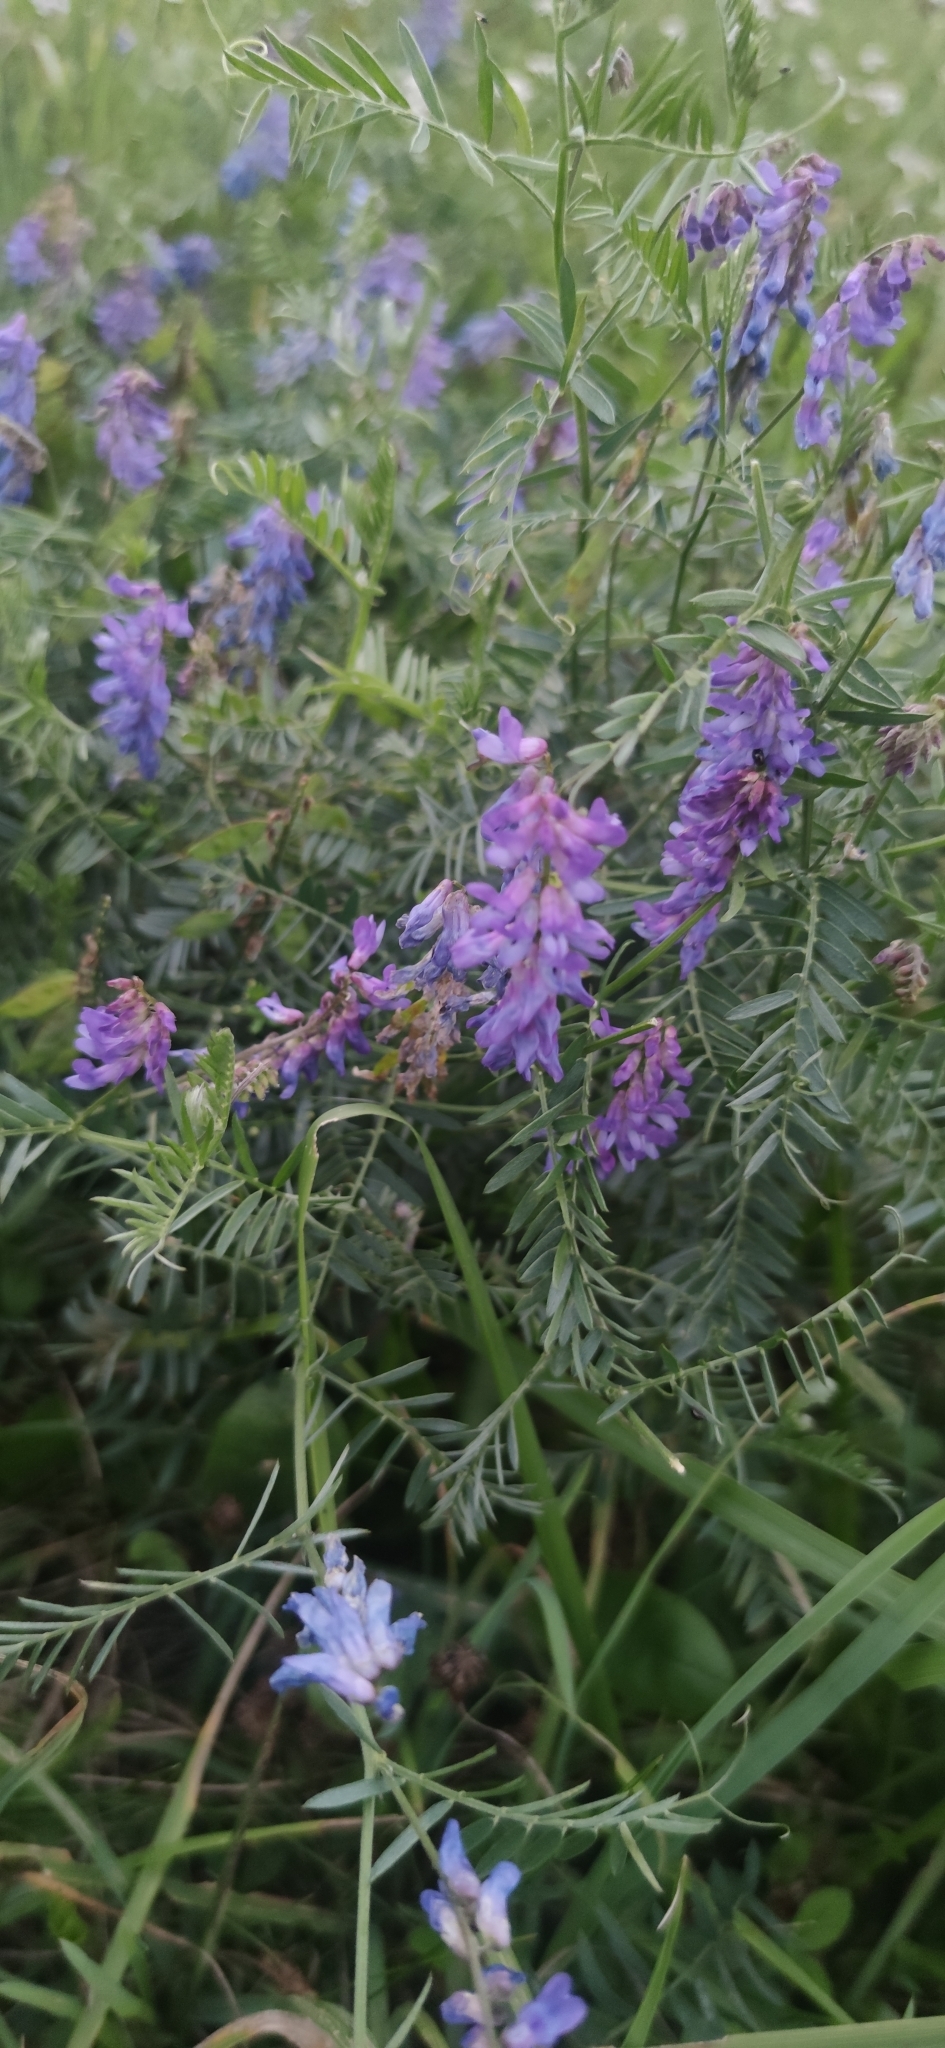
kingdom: Plantae
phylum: Tracheophyta
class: Magnoliopsida
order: Fabales
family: Fabaceae
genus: Vicia
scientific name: Vicia cracca
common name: Bird vetch
